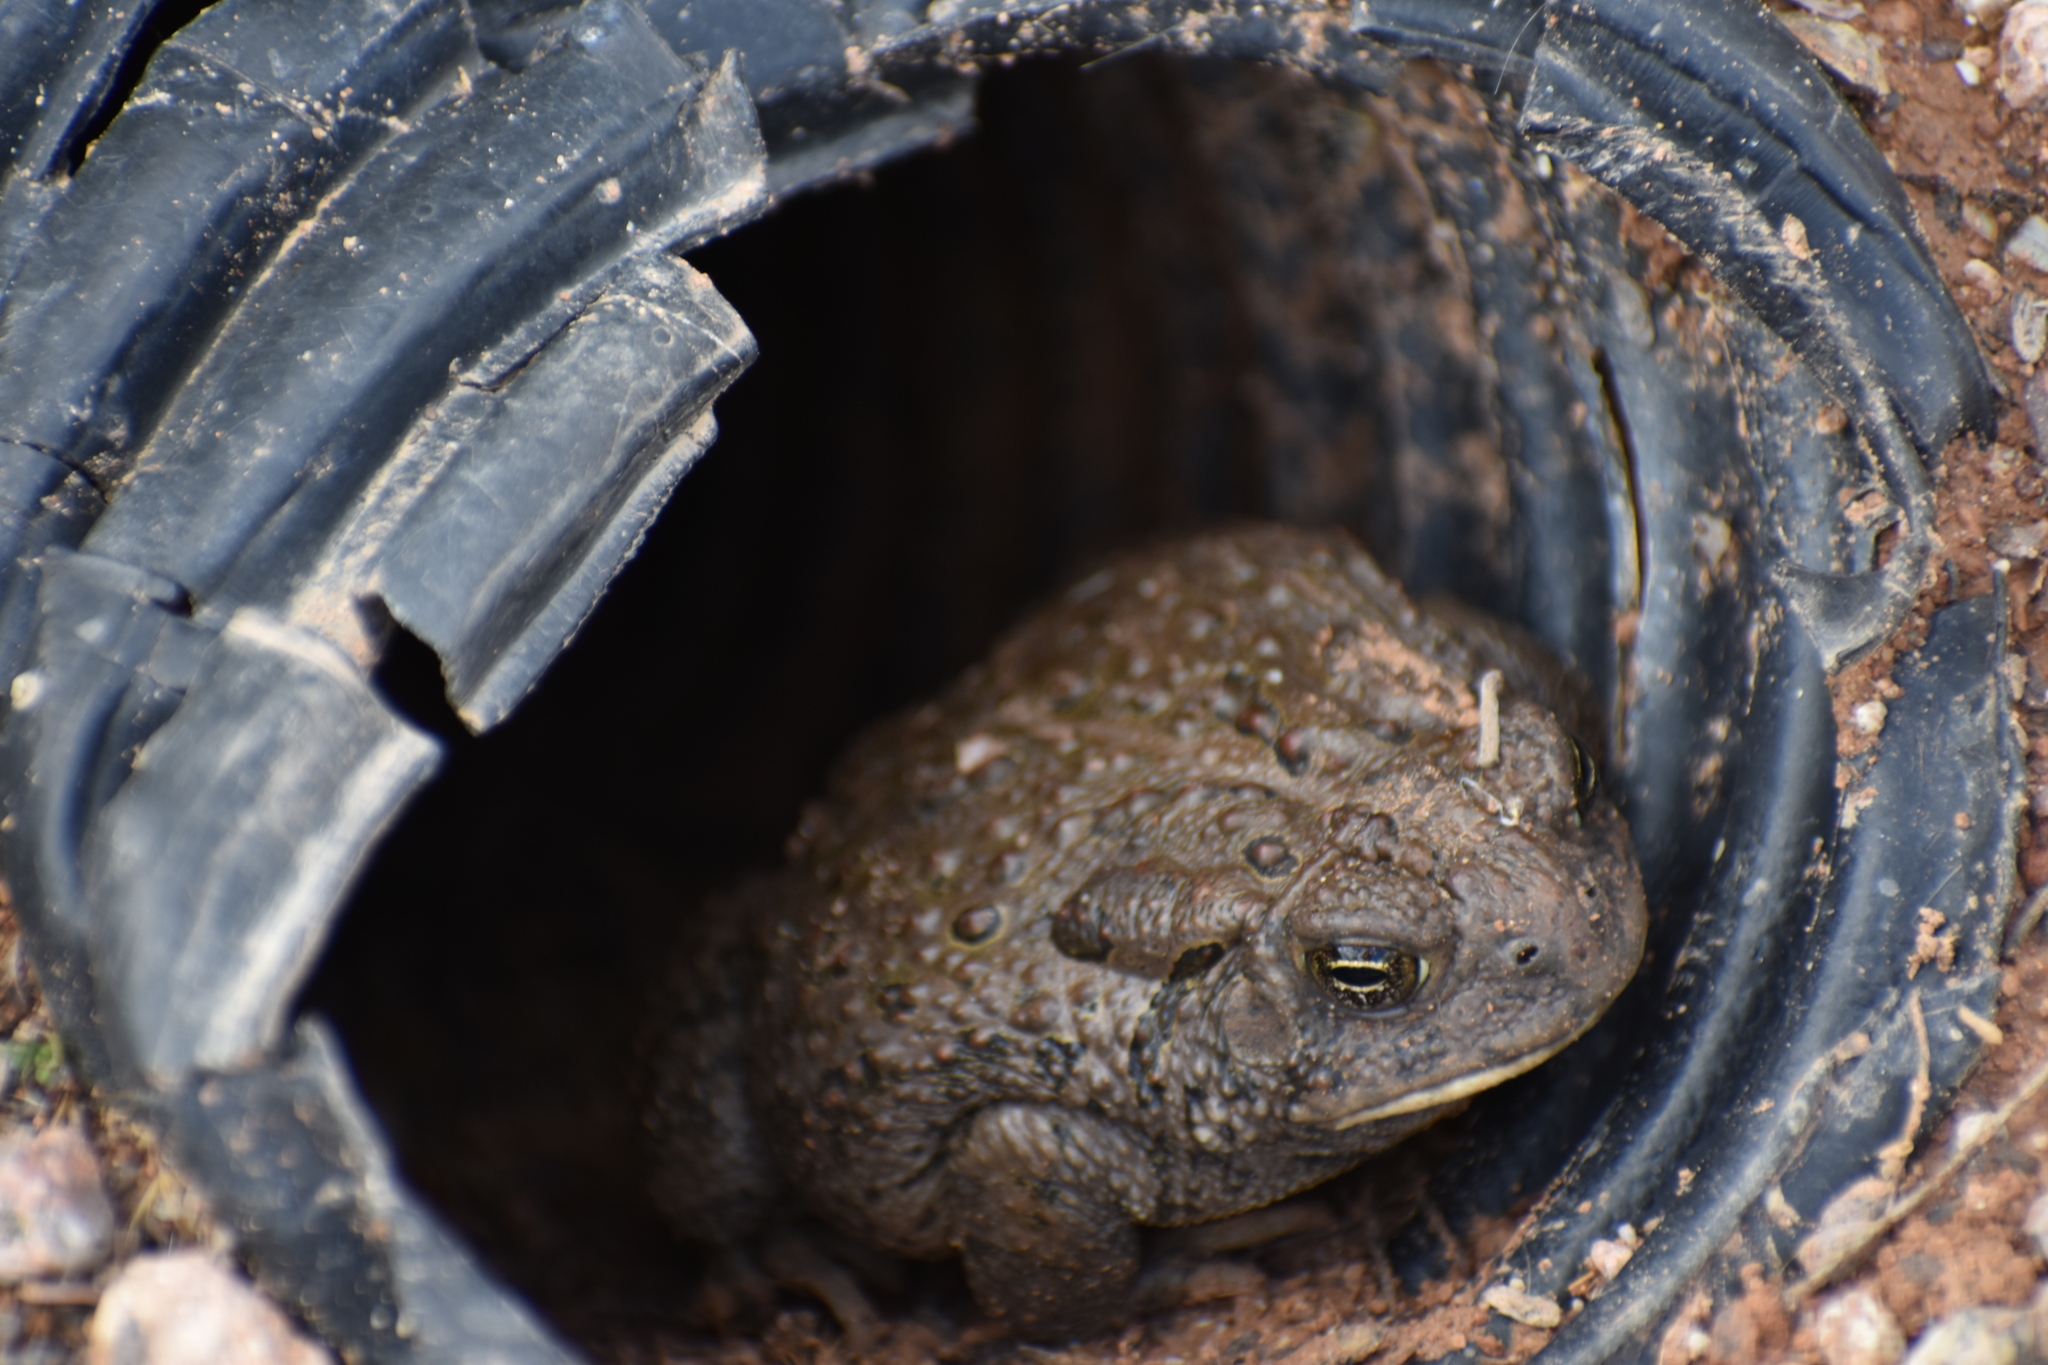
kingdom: Animalia
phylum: Chordata
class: Amphibia
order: Anura
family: Bufonidae
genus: Anaxyrus
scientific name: Anaxyrus woodhousii
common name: Woodhouse's toad
